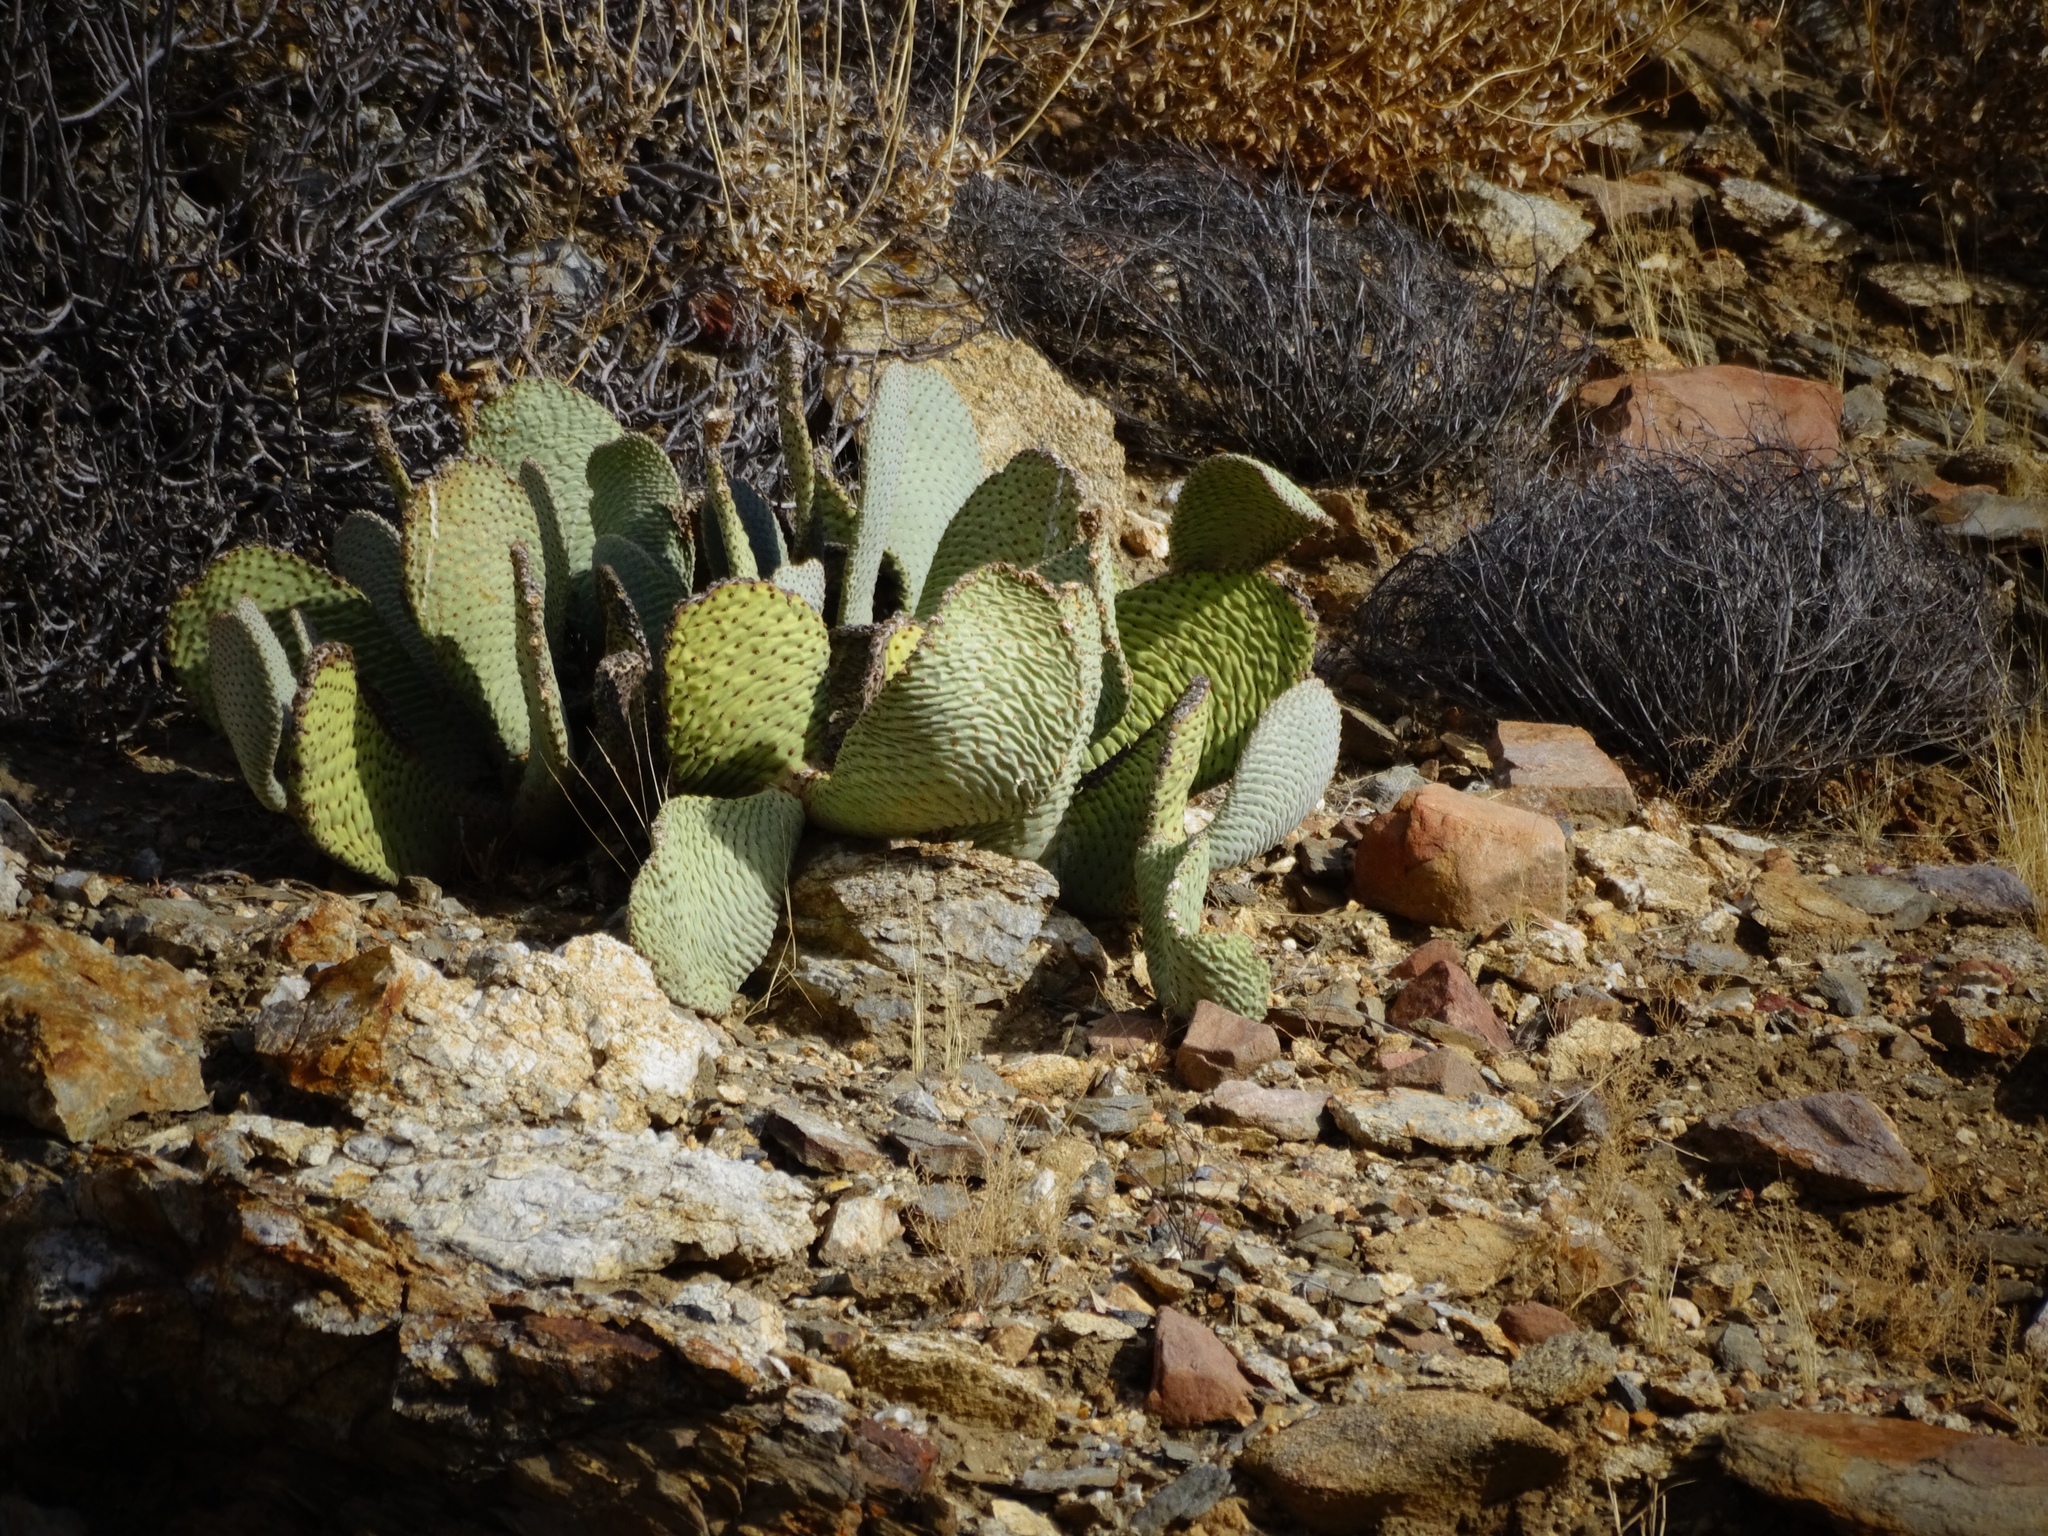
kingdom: Plantae
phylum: Tracheophyta
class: Magnoliopsida
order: Caryophyllales
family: Cactaceae
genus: Opuntia
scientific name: Opuntia basilaris
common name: Beavertail prickly-pear
